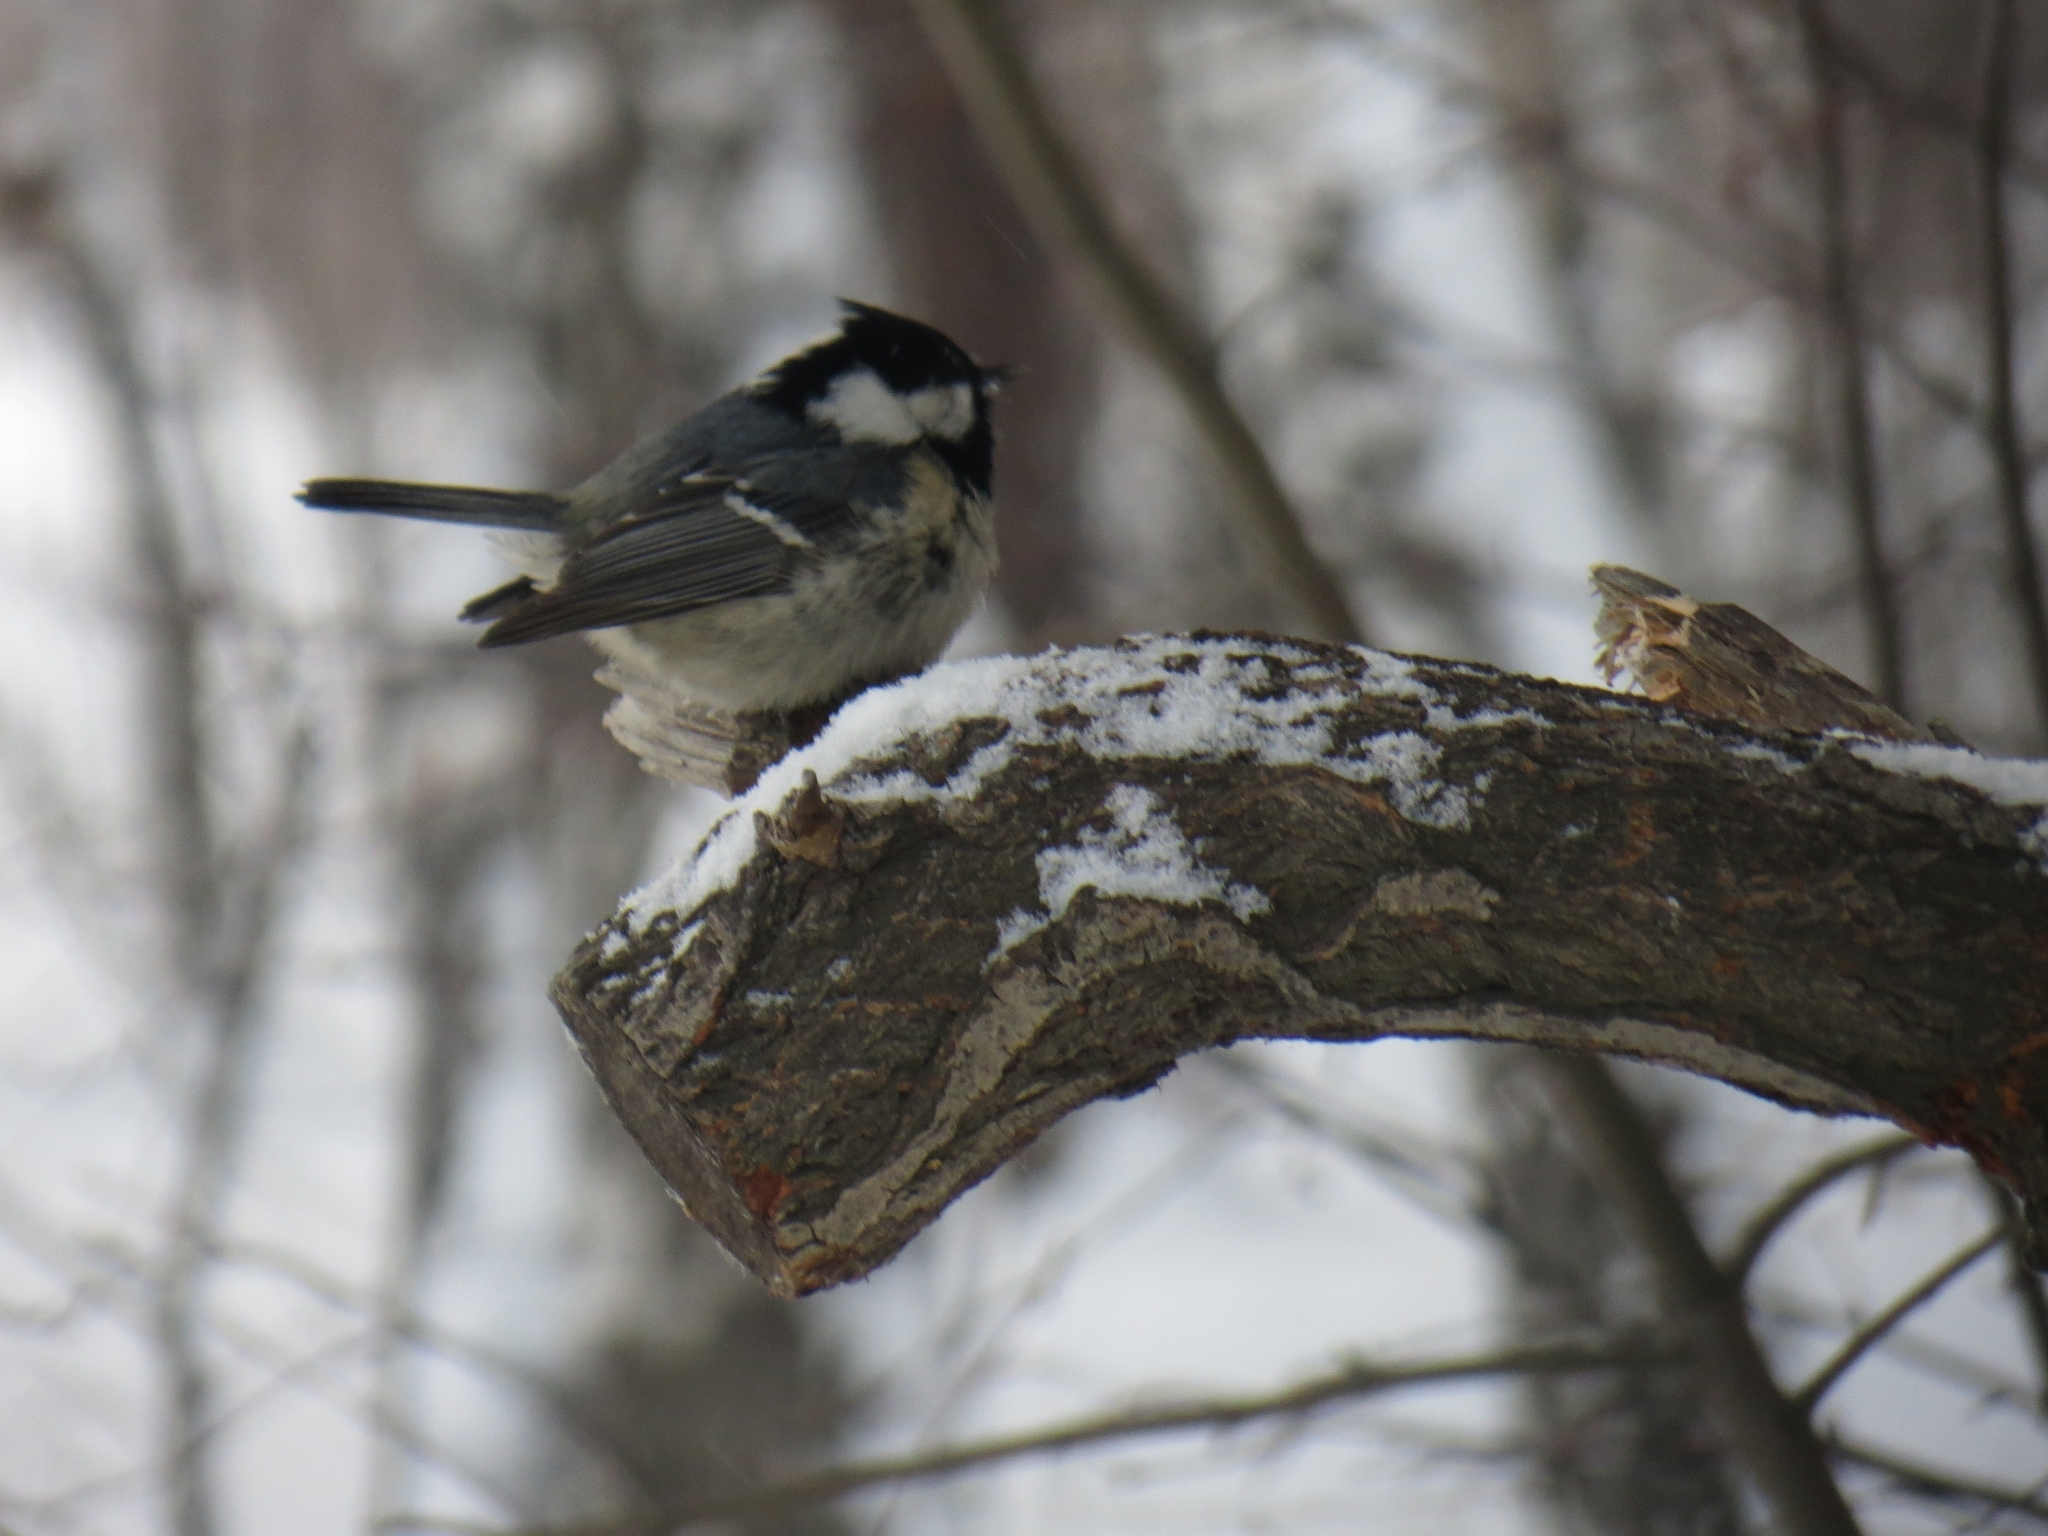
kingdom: Animalia
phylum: Chordata
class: Aves
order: Passeriformes
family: Paridae
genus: Periparus
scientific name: Periparus ater
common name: Coal tit
